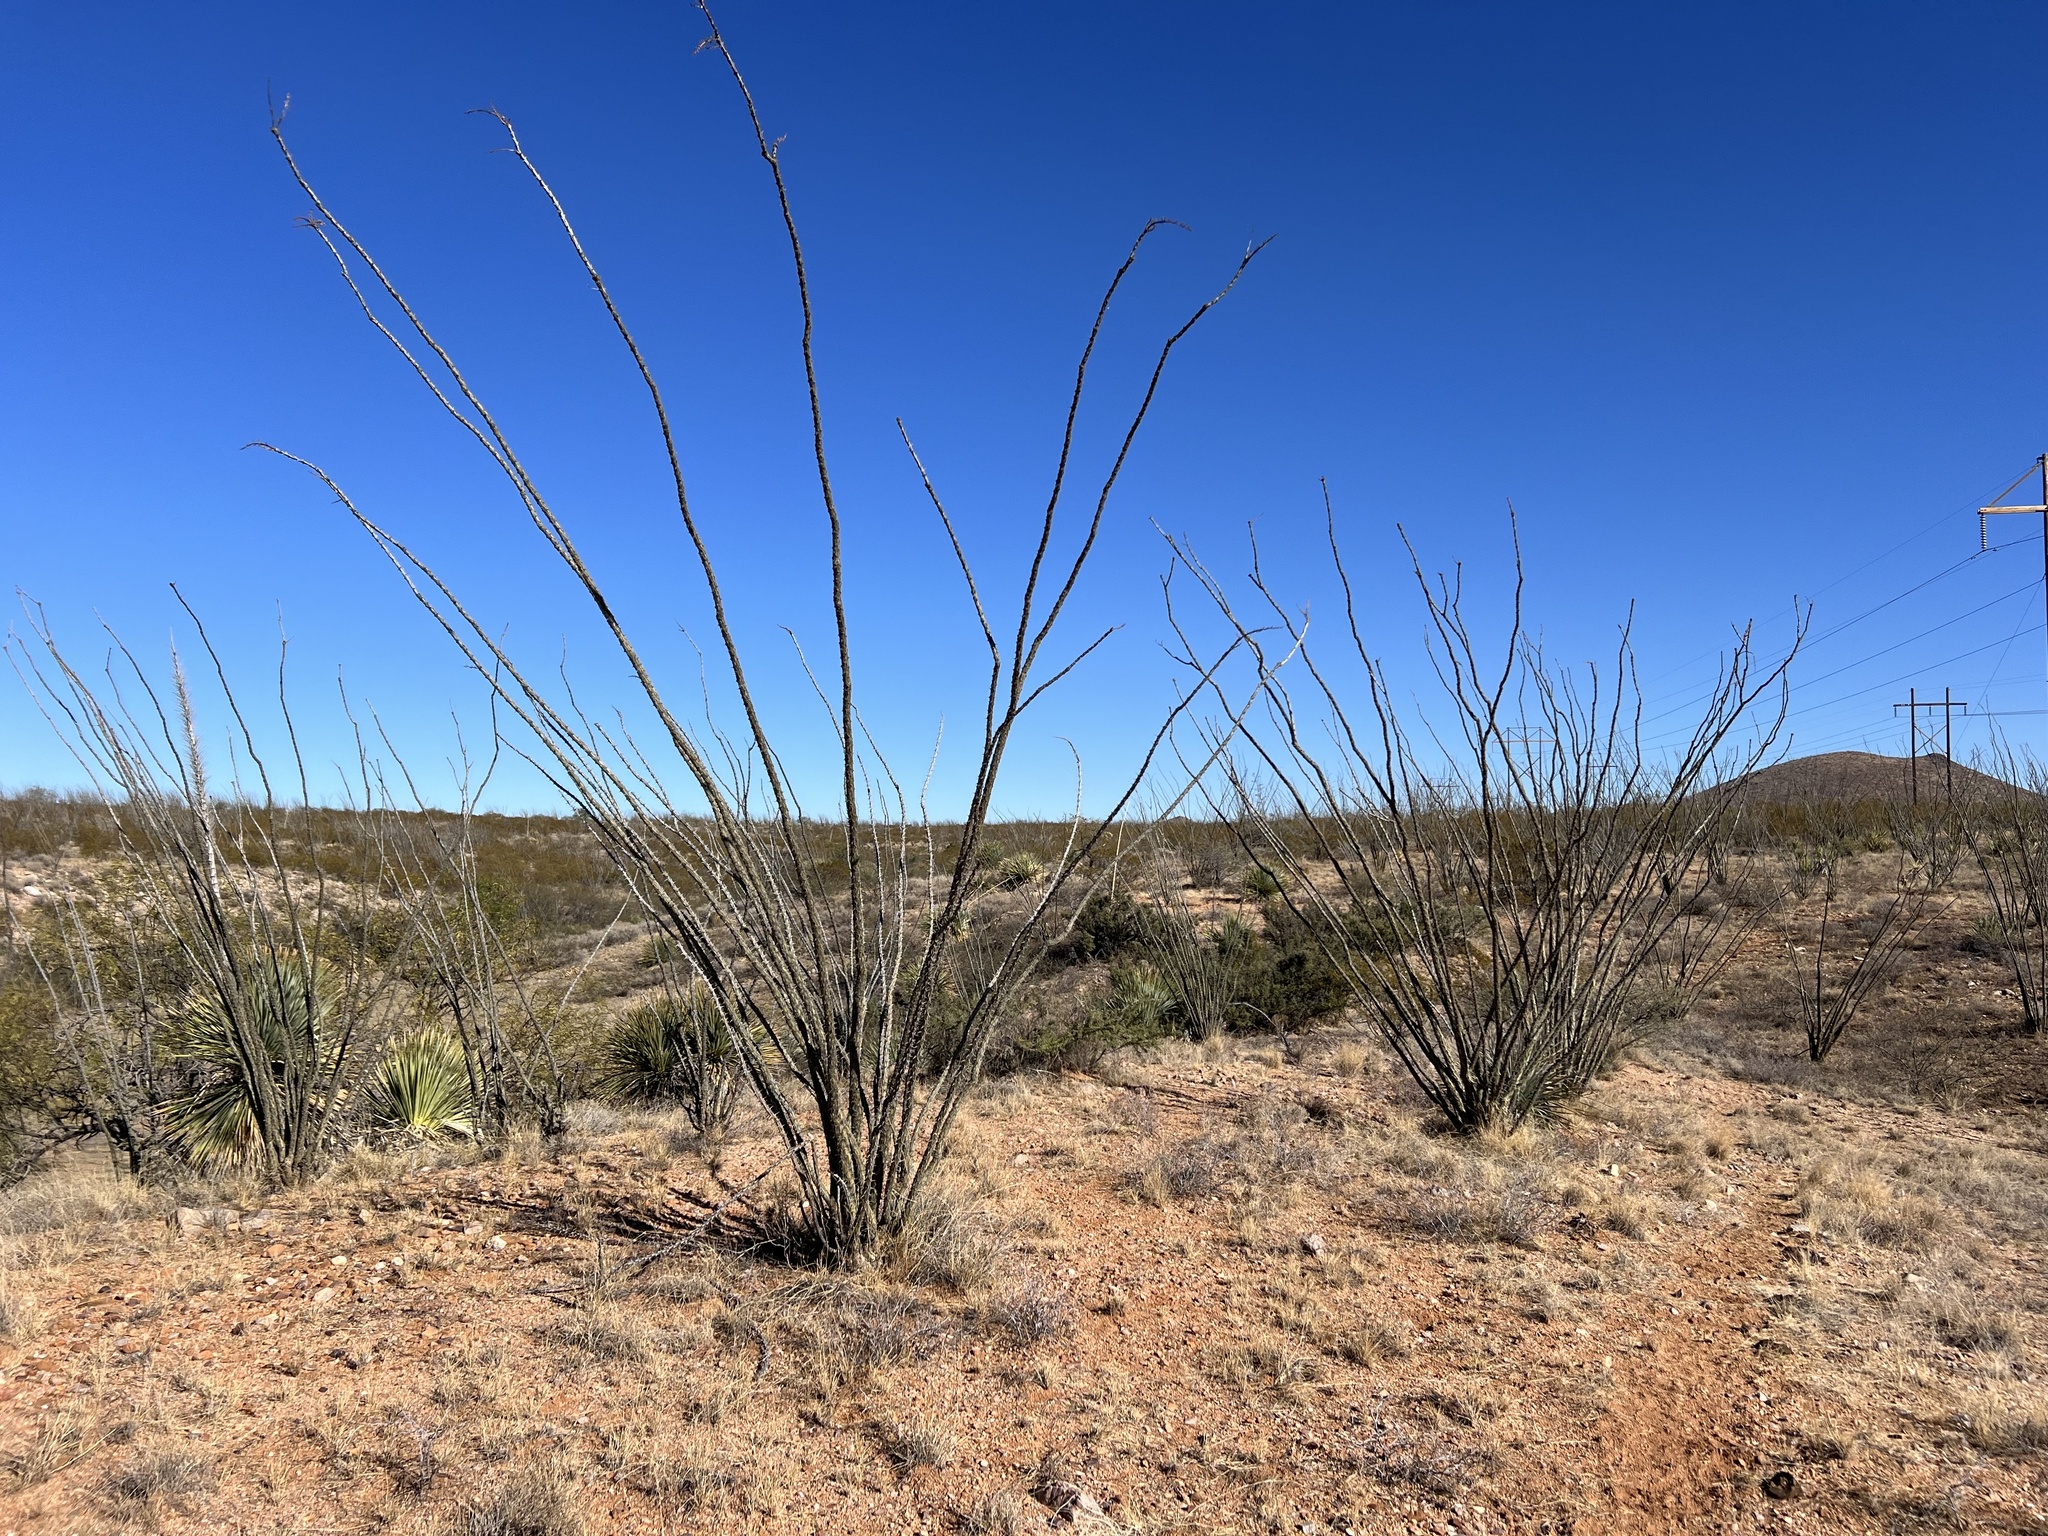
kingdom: Plantae
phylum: Tracheophyta
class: Magnoliopsida
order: Ericales
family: Fouquieriaceae
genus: Fouquieria
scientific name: Fouquieria splendens
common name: Vine-cactus
